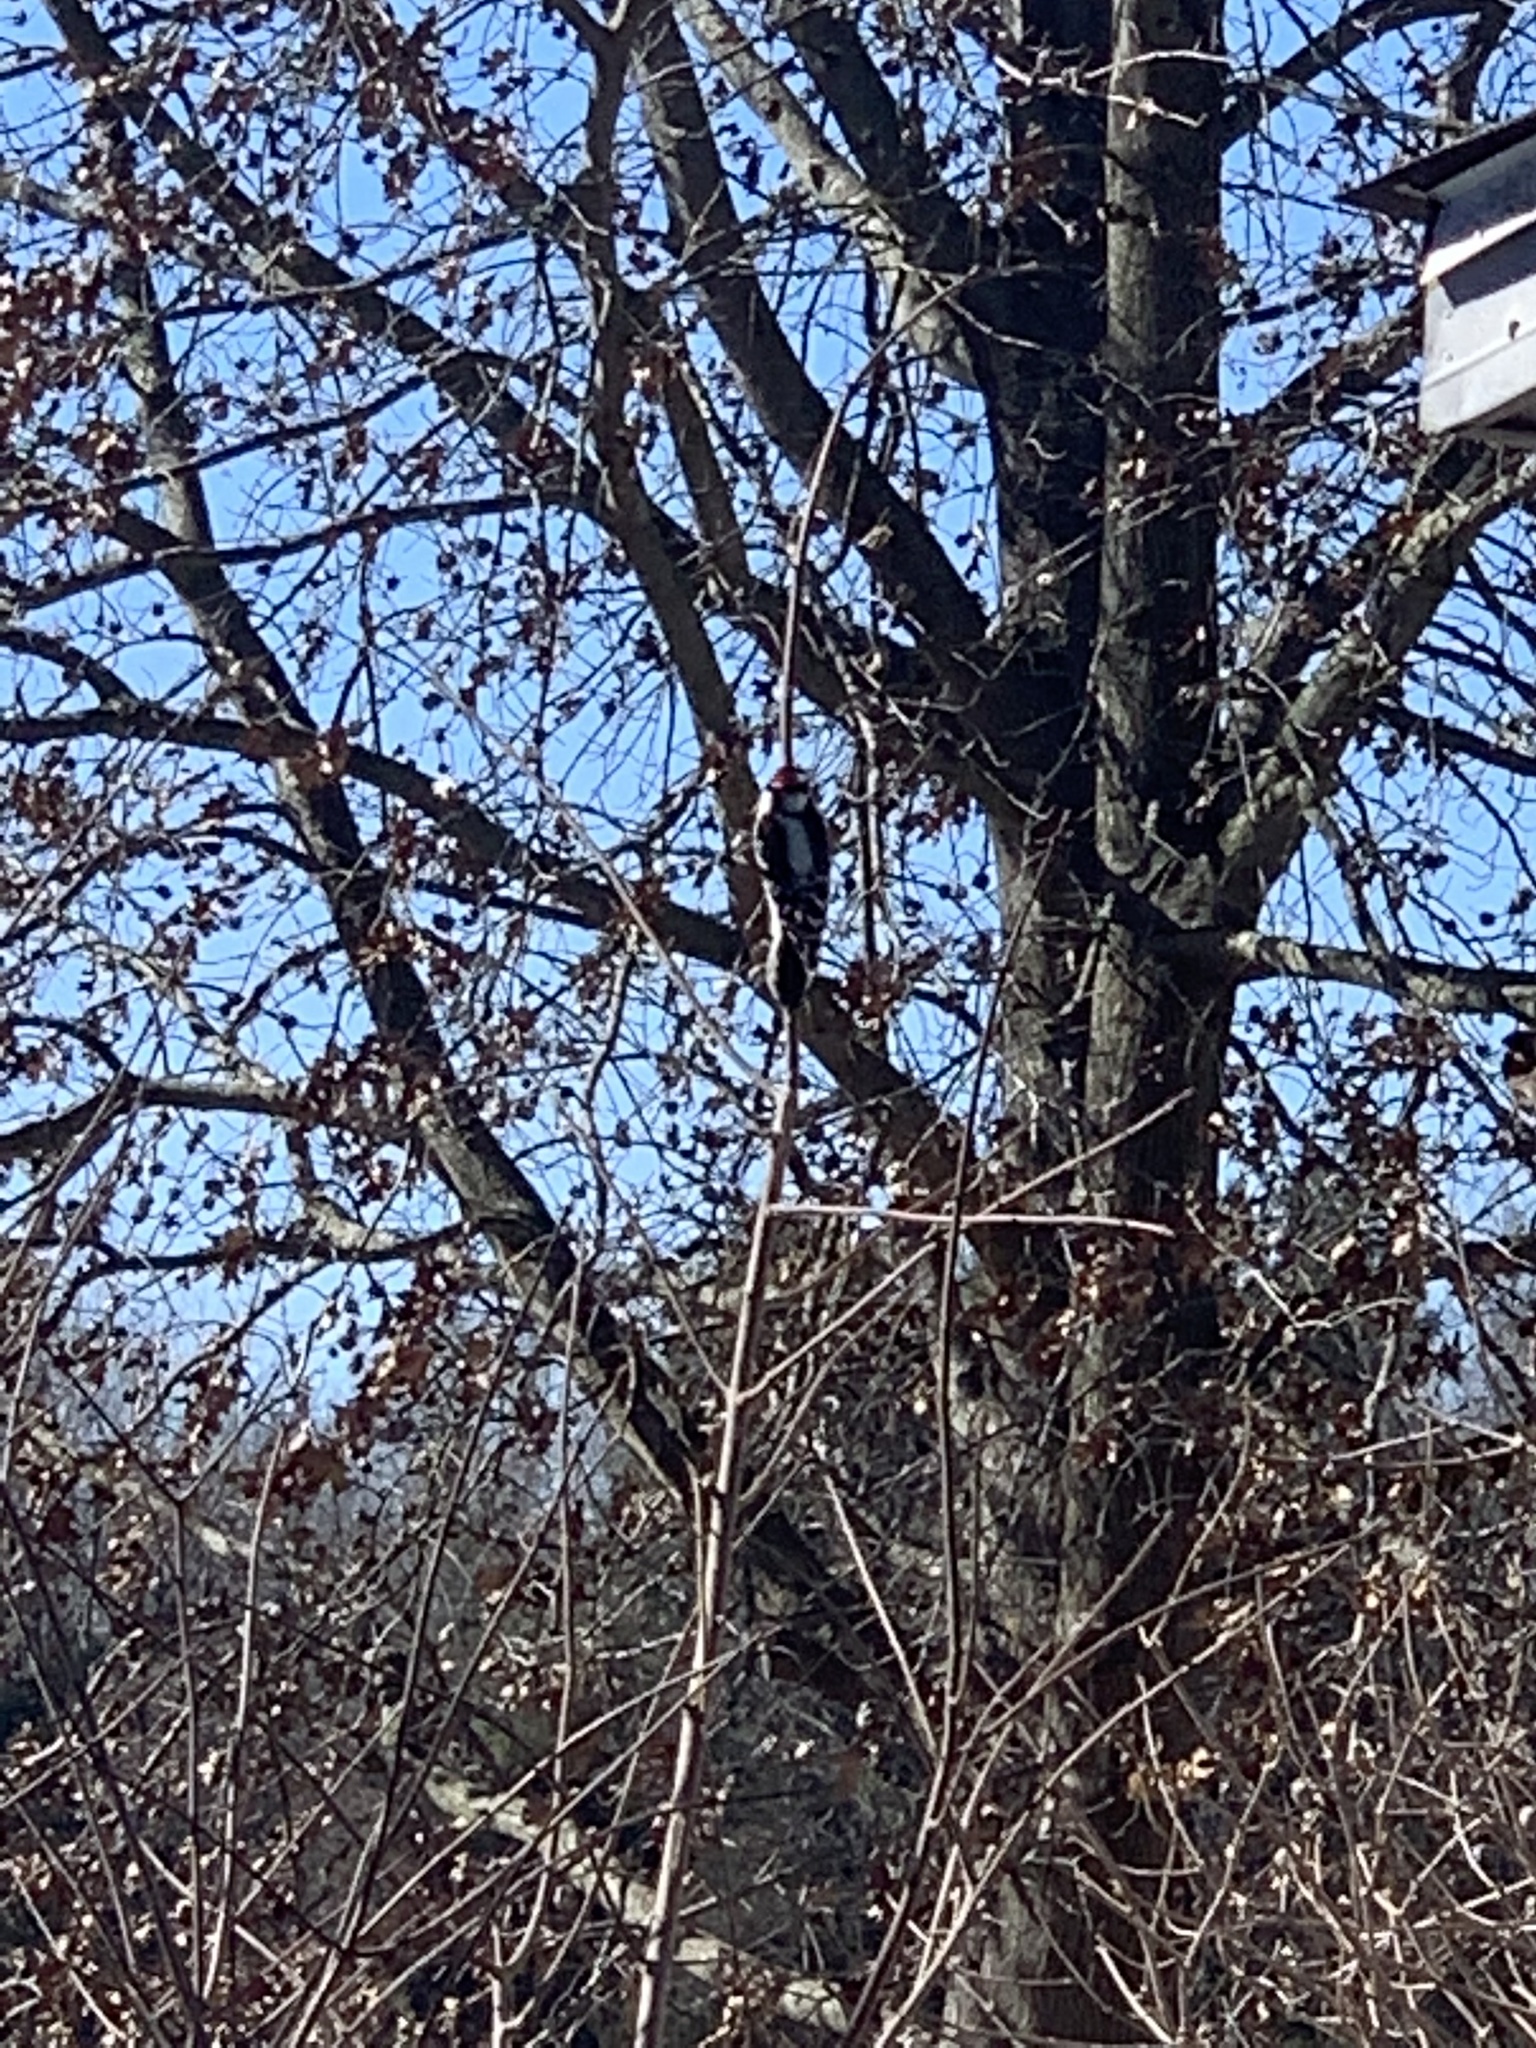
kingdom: Animalia
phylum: Chordata
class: Aves
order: Piciformes
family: Picidae
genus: Dryobates
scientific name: Dryobates pubescens
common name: Downy woodpecker
